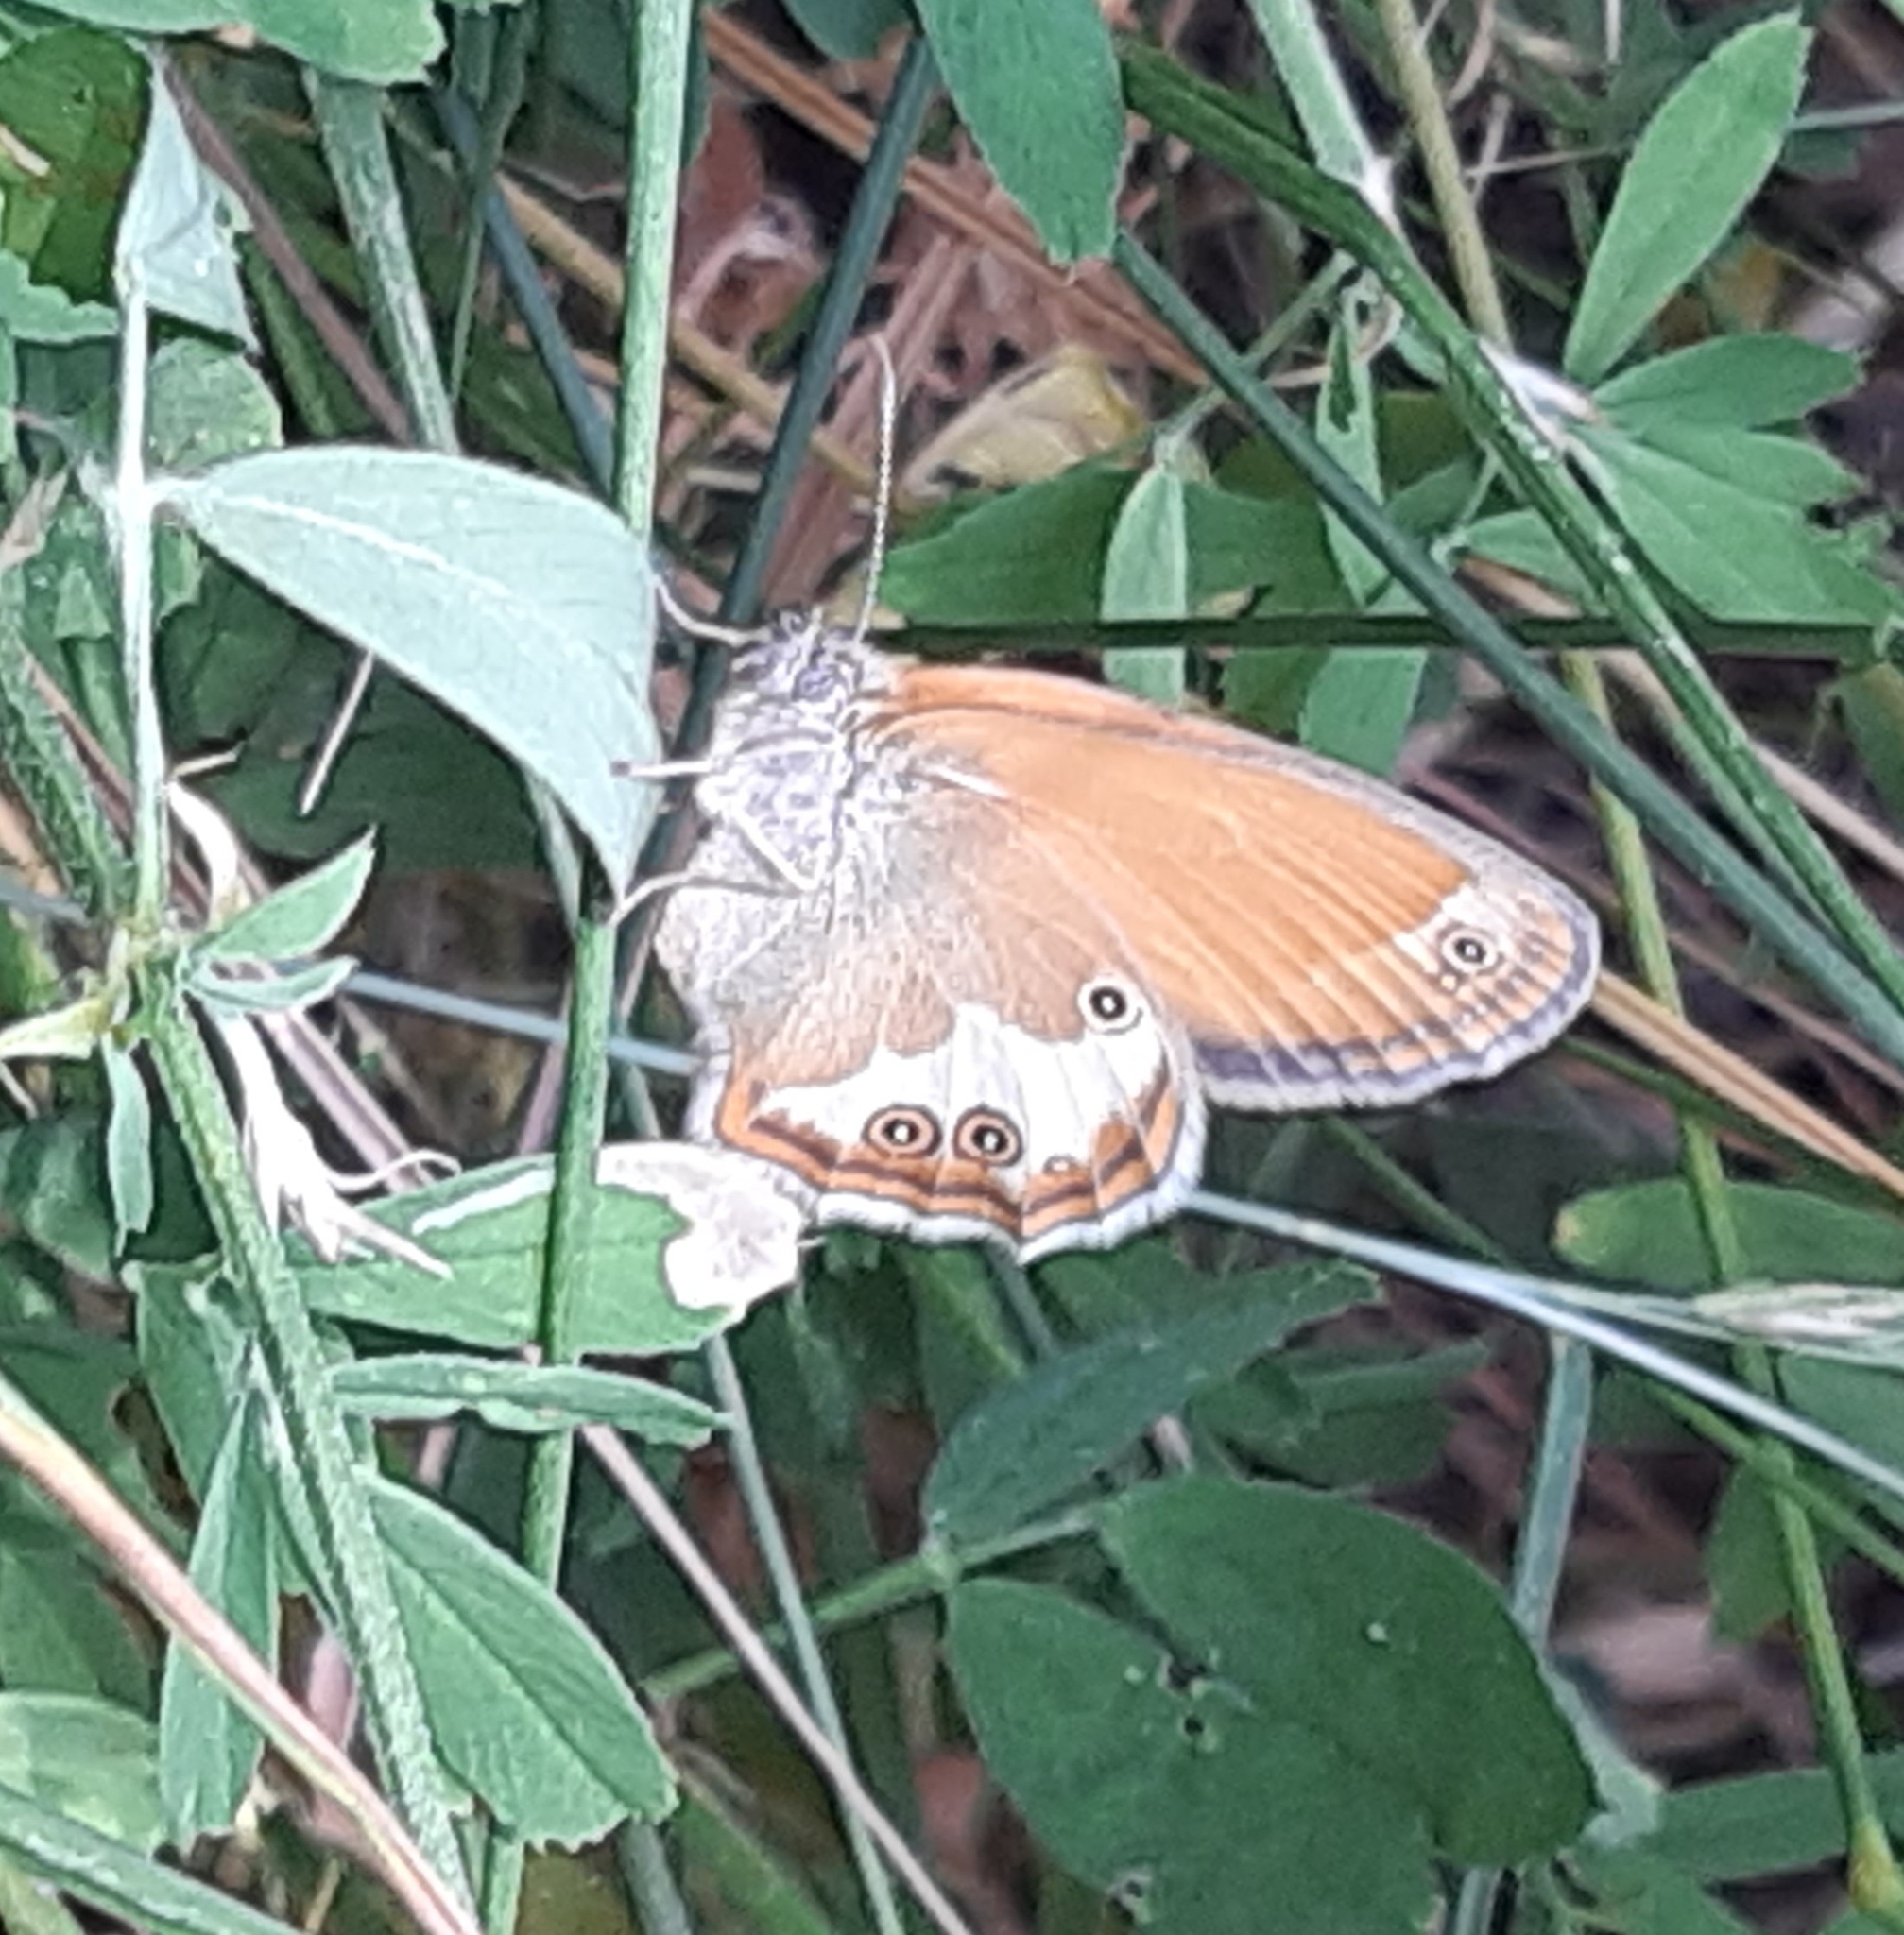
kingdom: Animalia
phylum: Arthropoda
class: Insecta
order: Lepidoptera
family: Nymphalidae
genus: Coenonympha
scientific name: Coenonympha arcania
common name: Pearly heath
